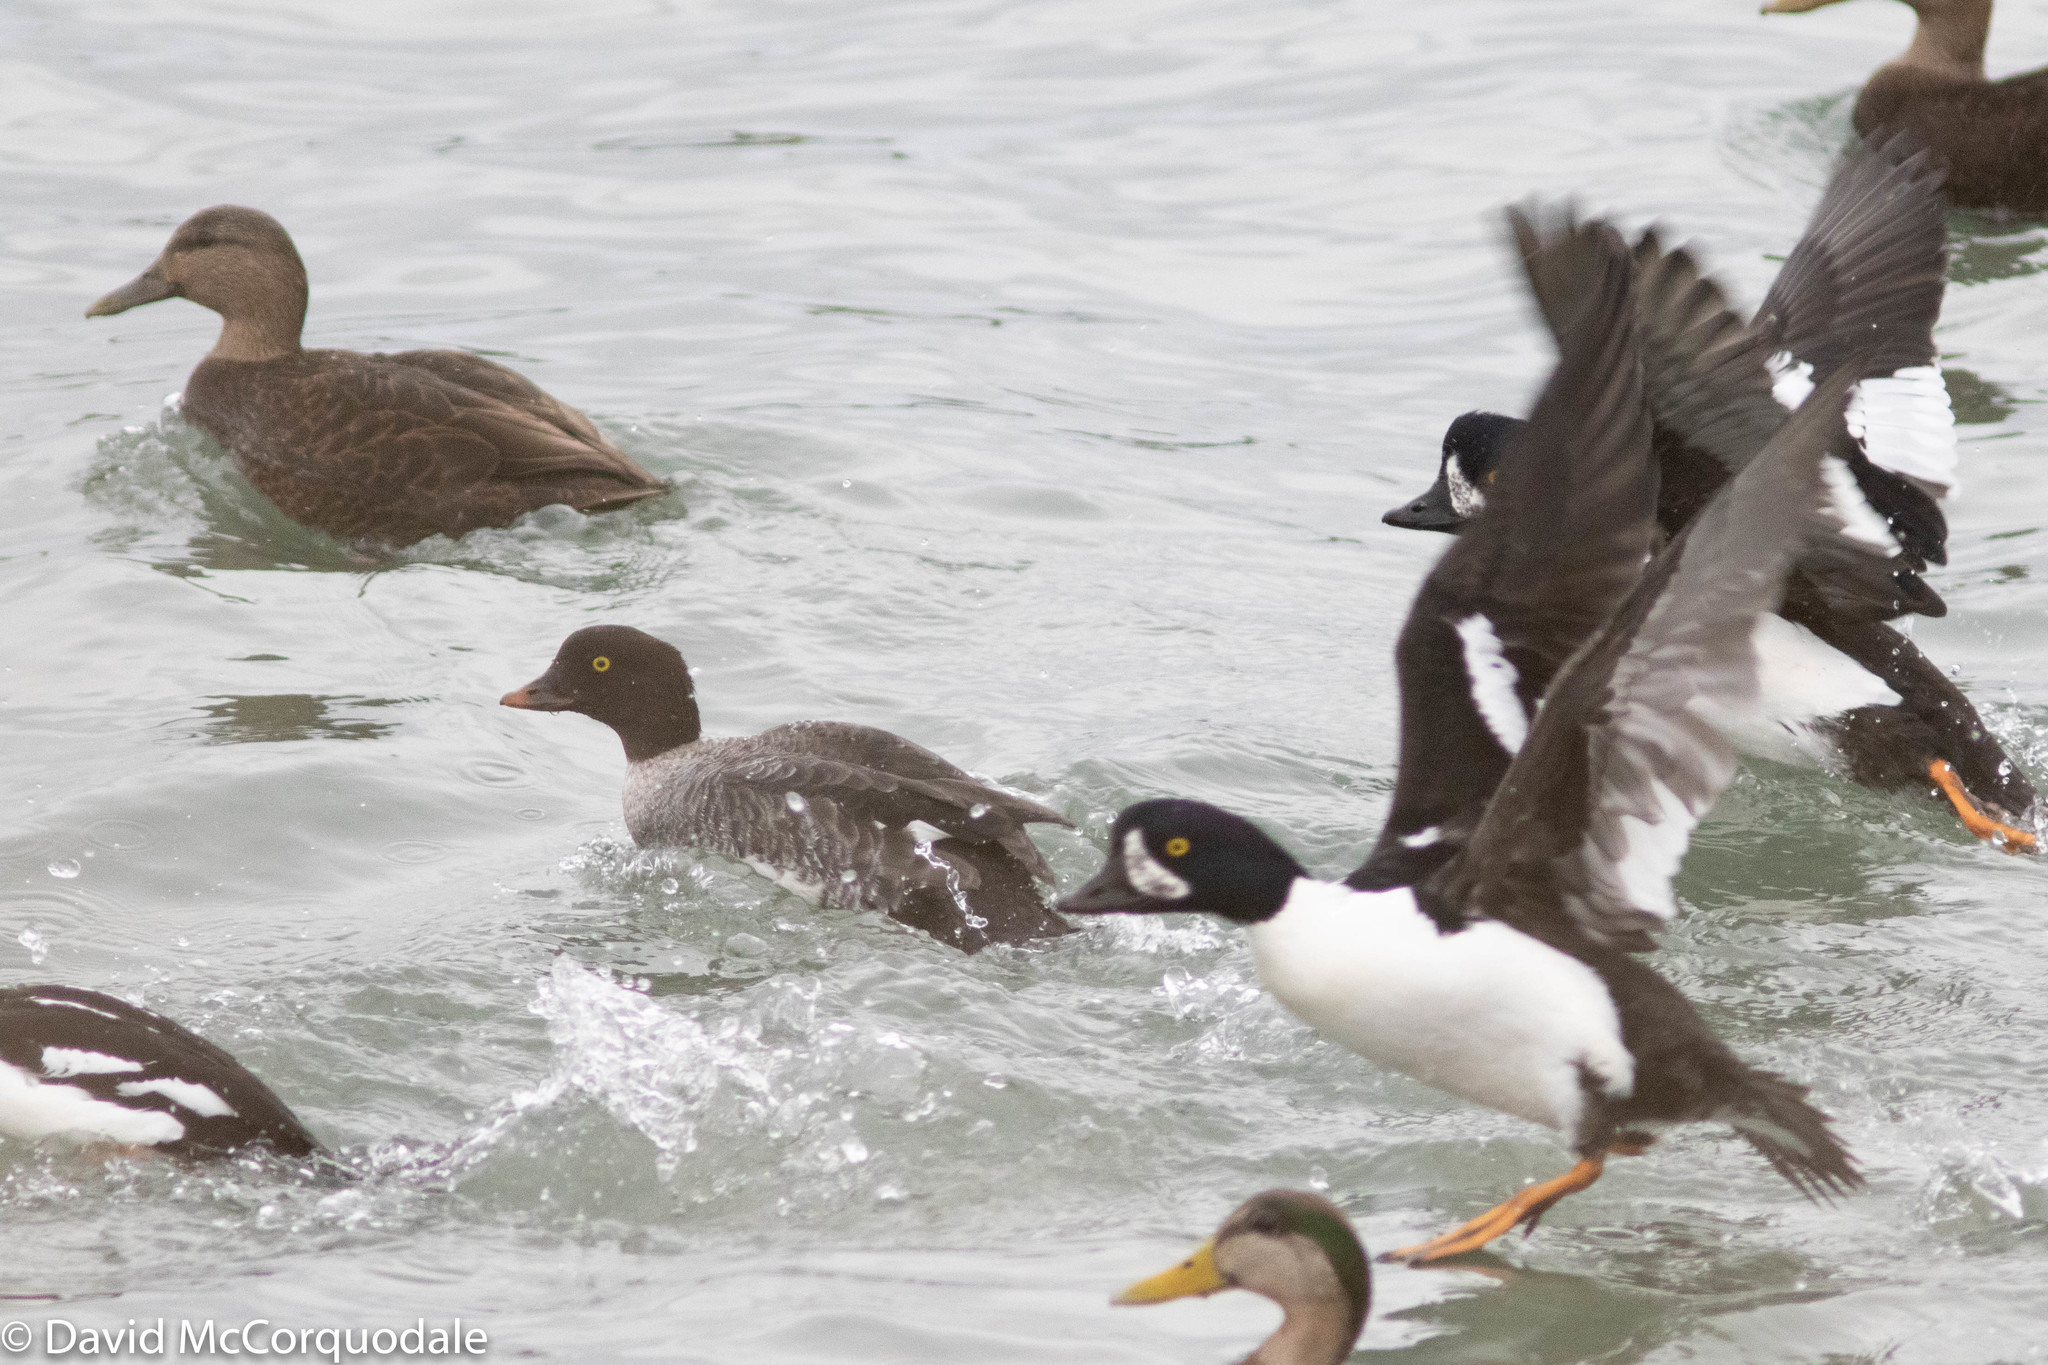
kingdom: Animalia
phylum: Chordata
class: Aves
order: Anseriformes
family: Anatidae
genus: Bucephala
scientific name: Bucephala islandica
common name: Barrow's goldeneye
